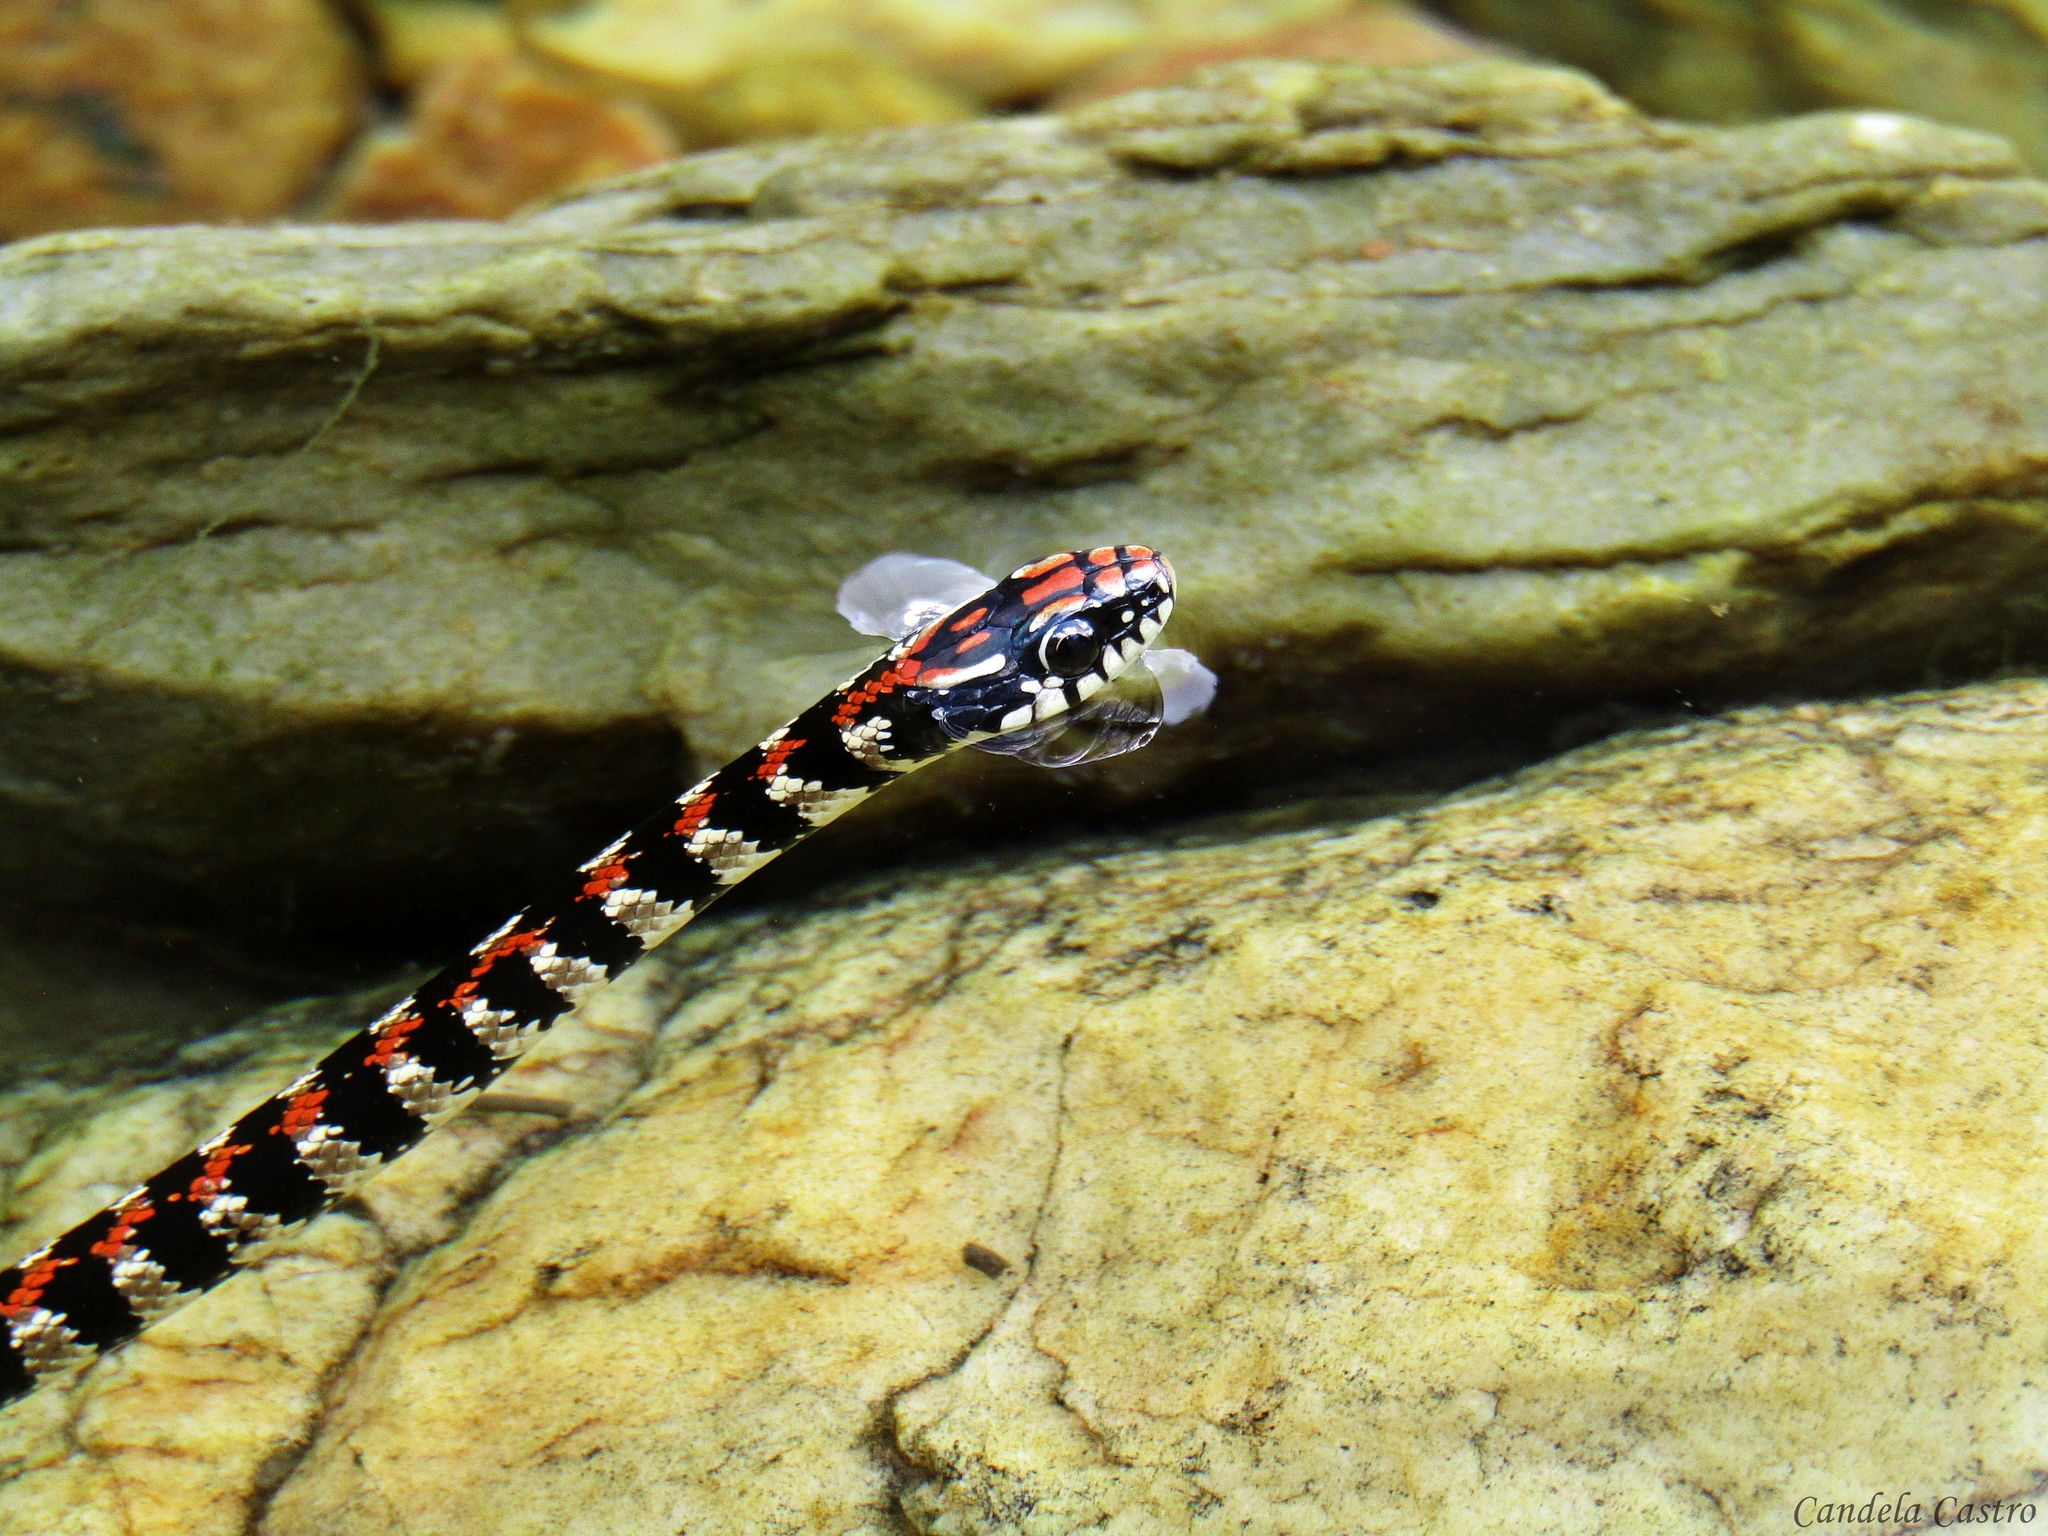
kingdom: Animalia
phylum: Chordata
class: Squamata
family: Colubridae
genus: Lygophis
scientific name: Lygophis elegantissimus
